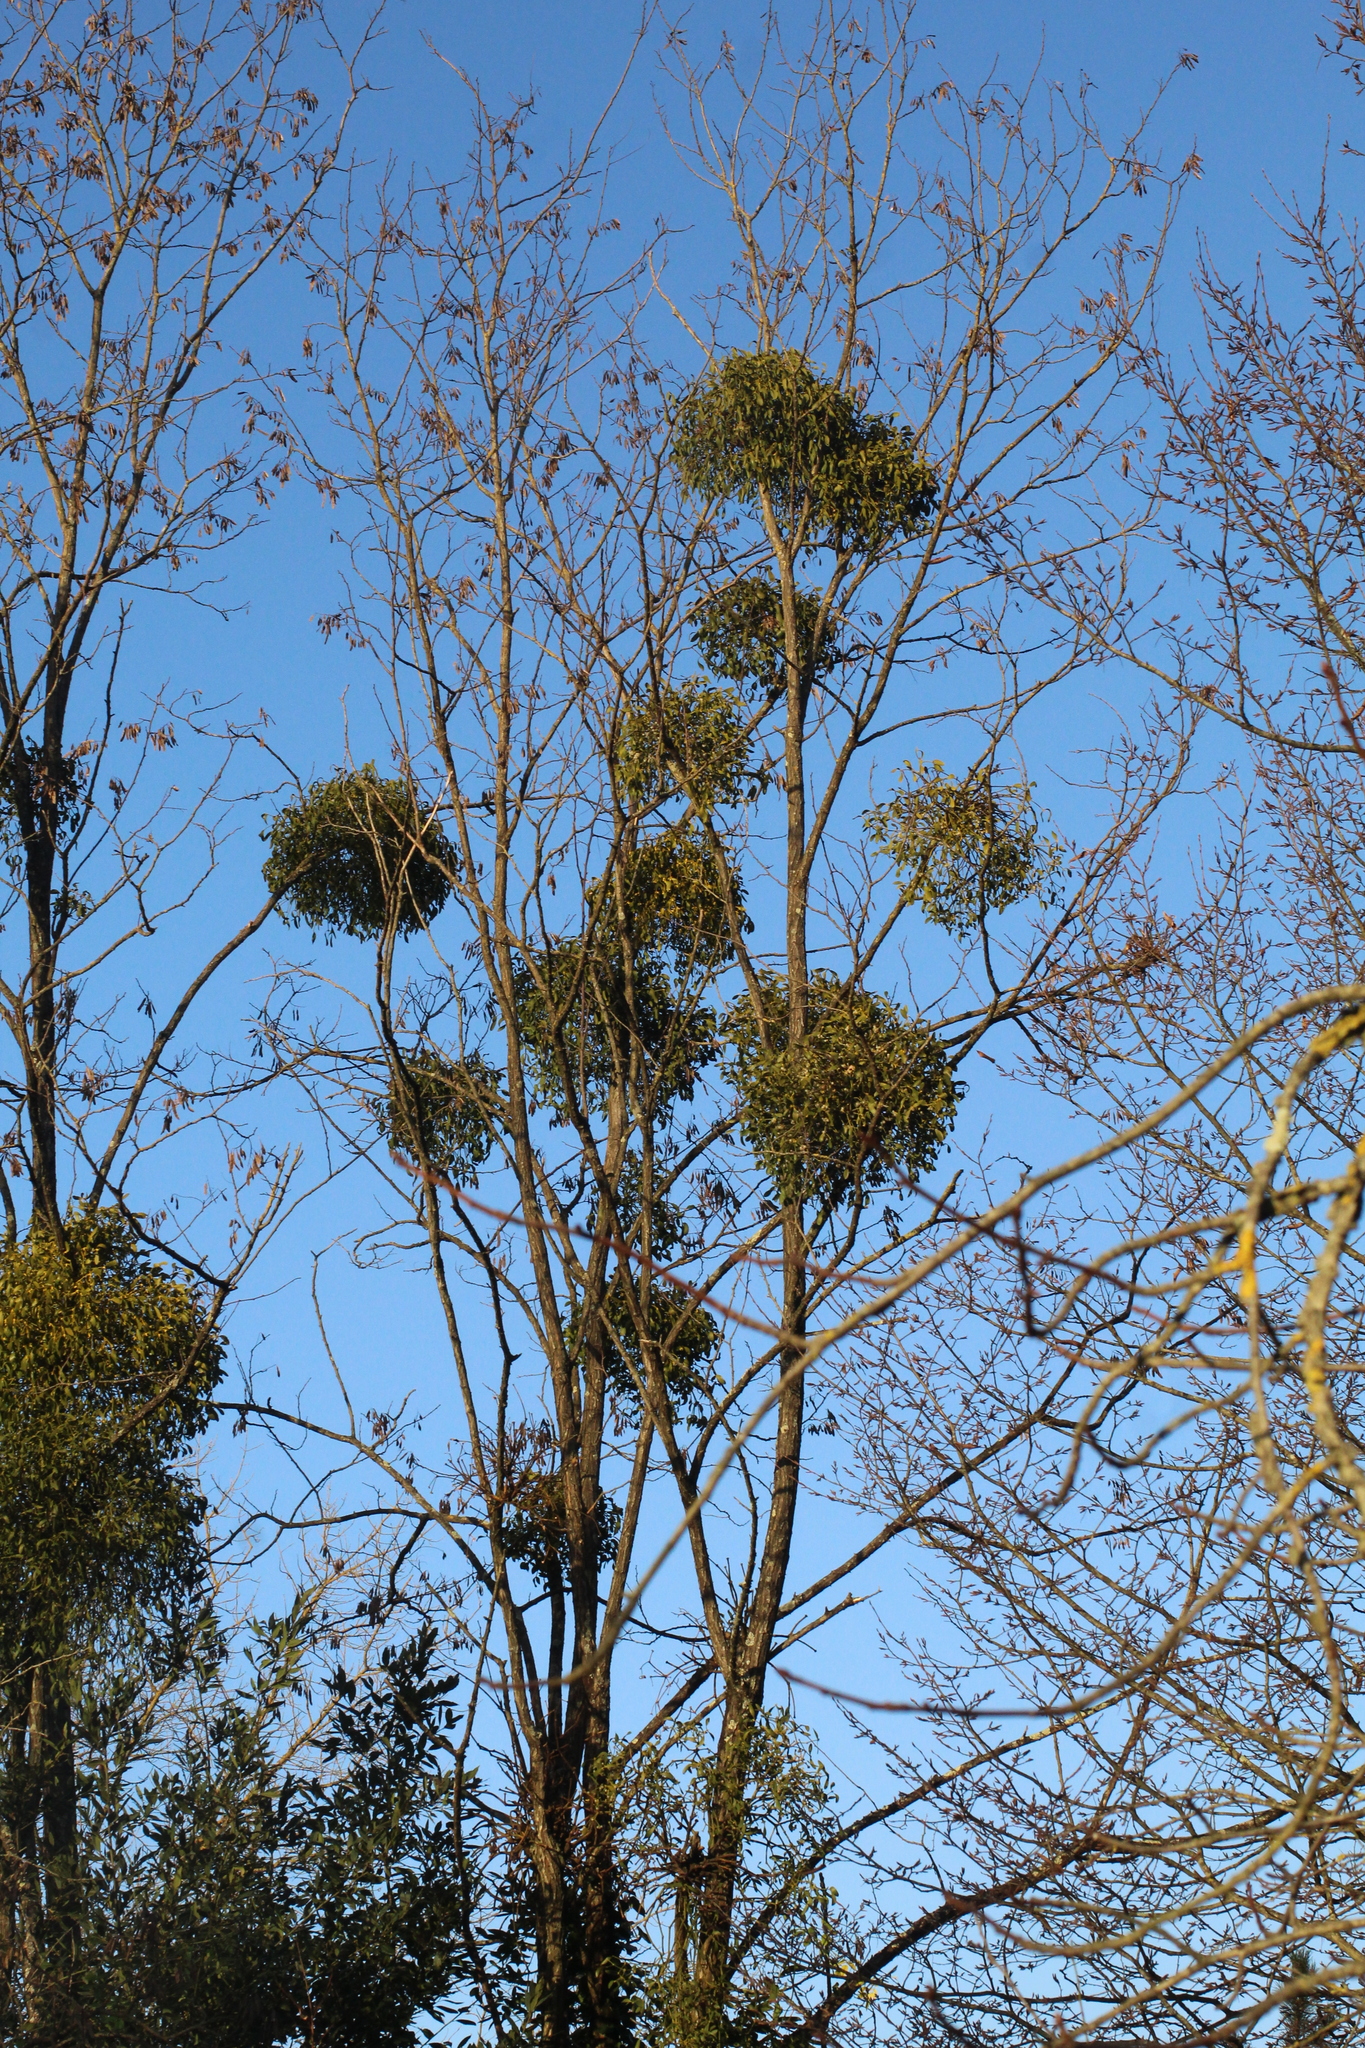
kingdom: Plantae
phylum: Tracheophyta
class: Magnoliopsida
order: Santalales
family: Viscaceae
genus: Viscum
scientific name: Viscum album
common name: Mistletoe
